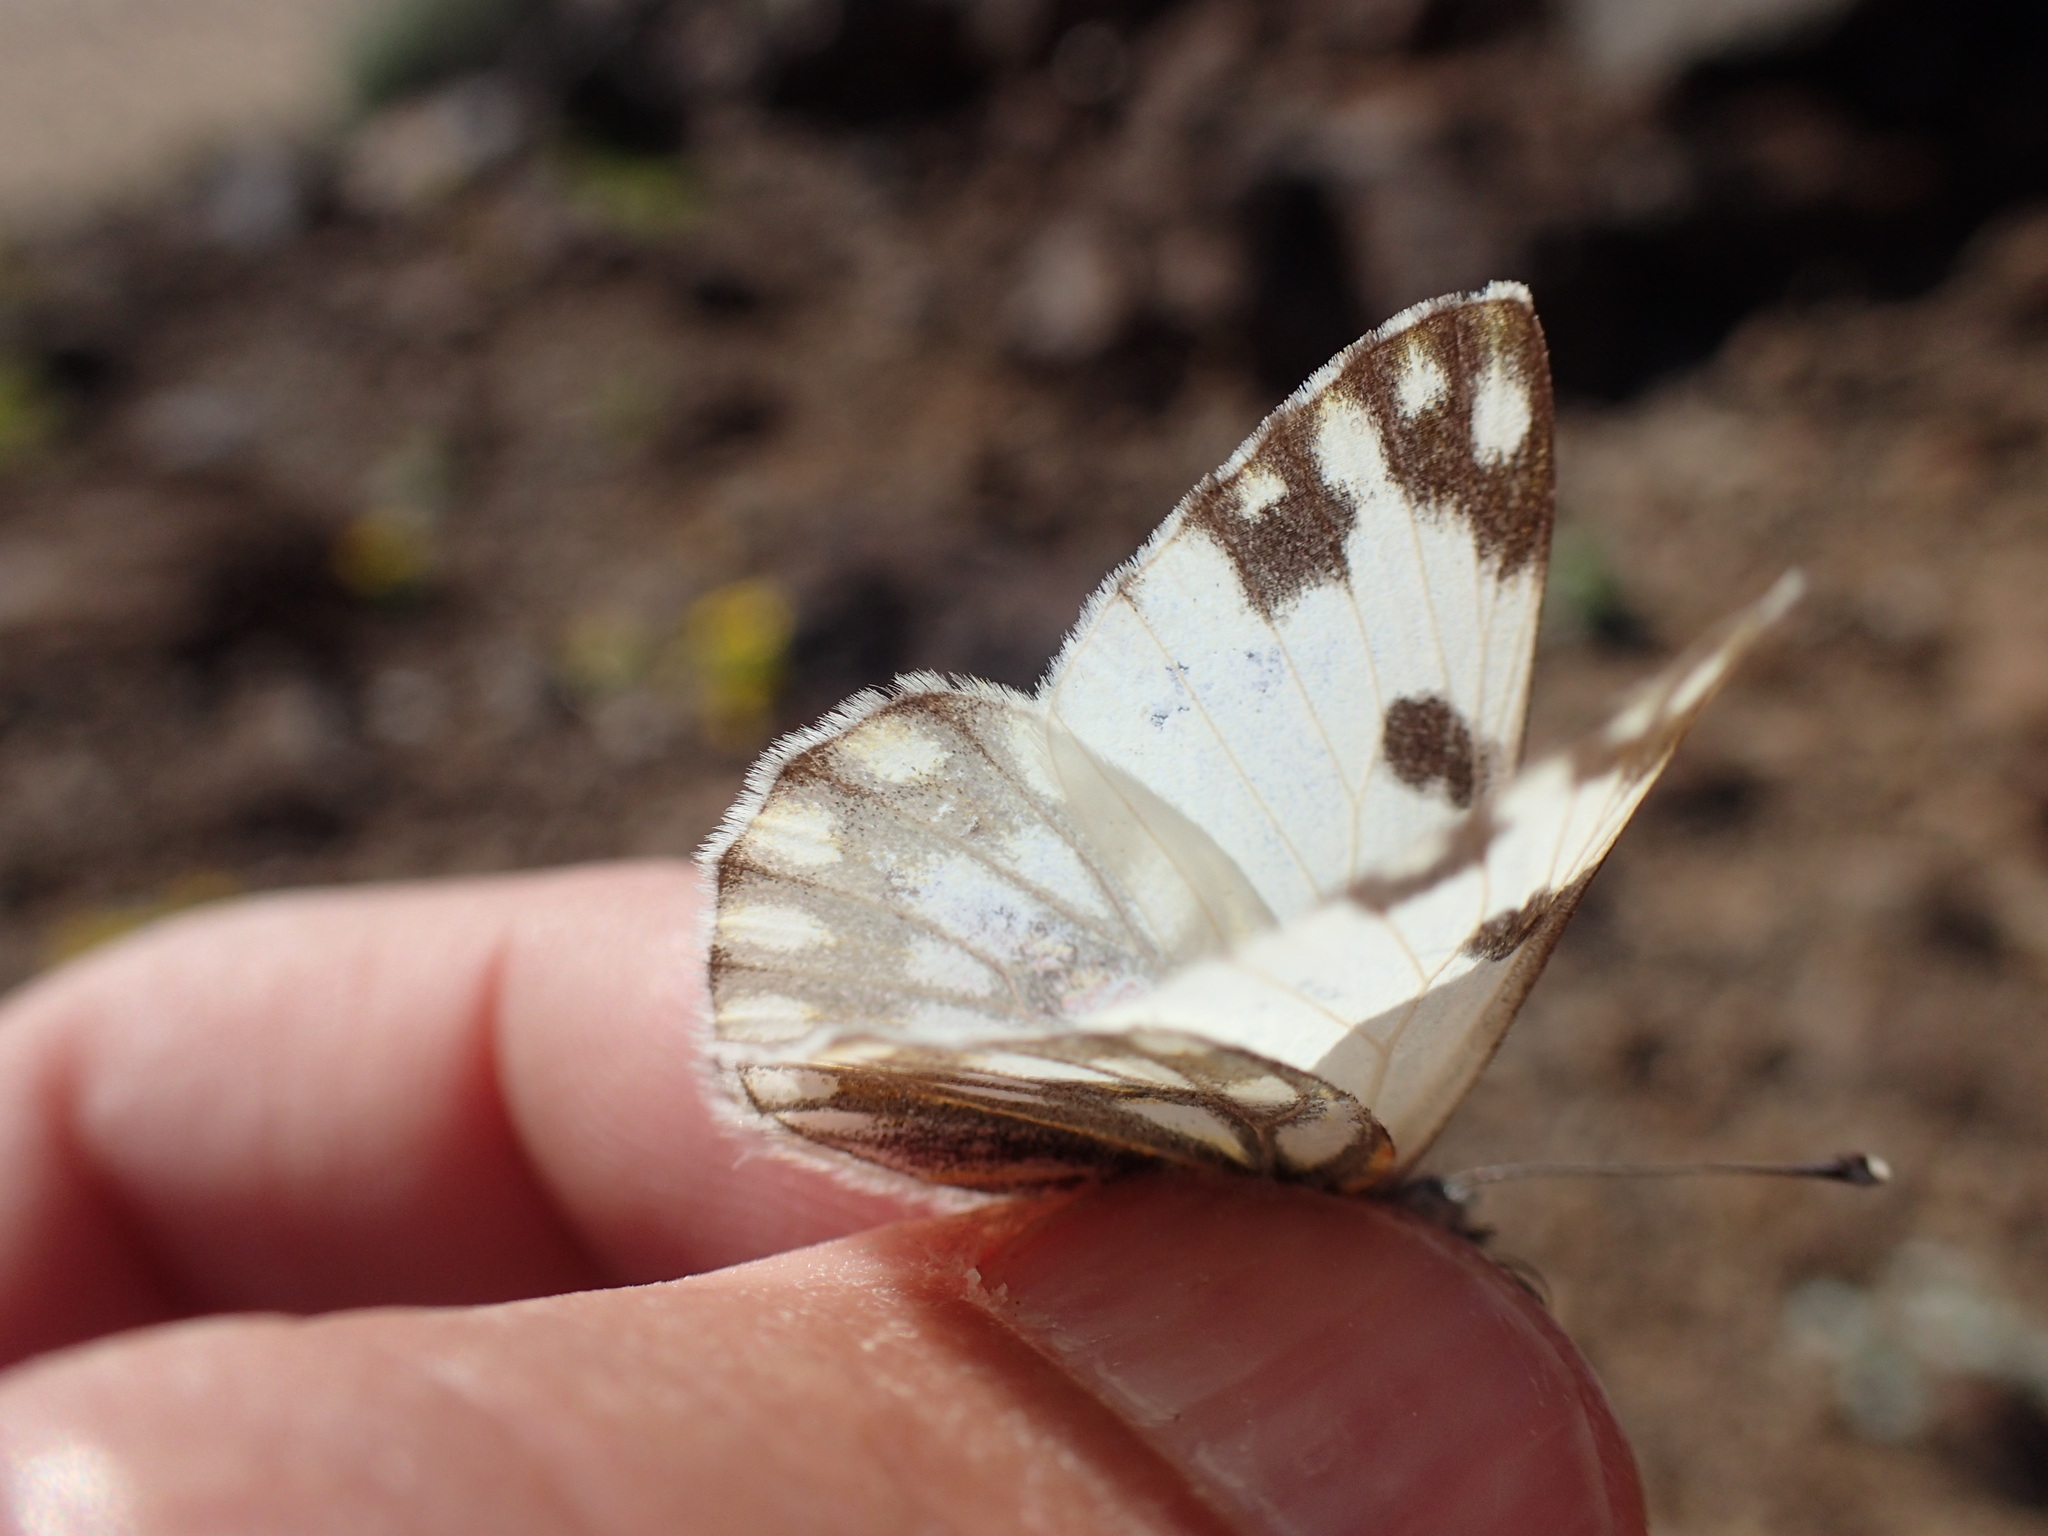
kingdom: Animalia
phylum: Arthropoda
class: Insecta
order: Lepidoptera
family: Pieridae
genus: Belenois
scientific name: Belenois aurota
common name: Brown-veined white
